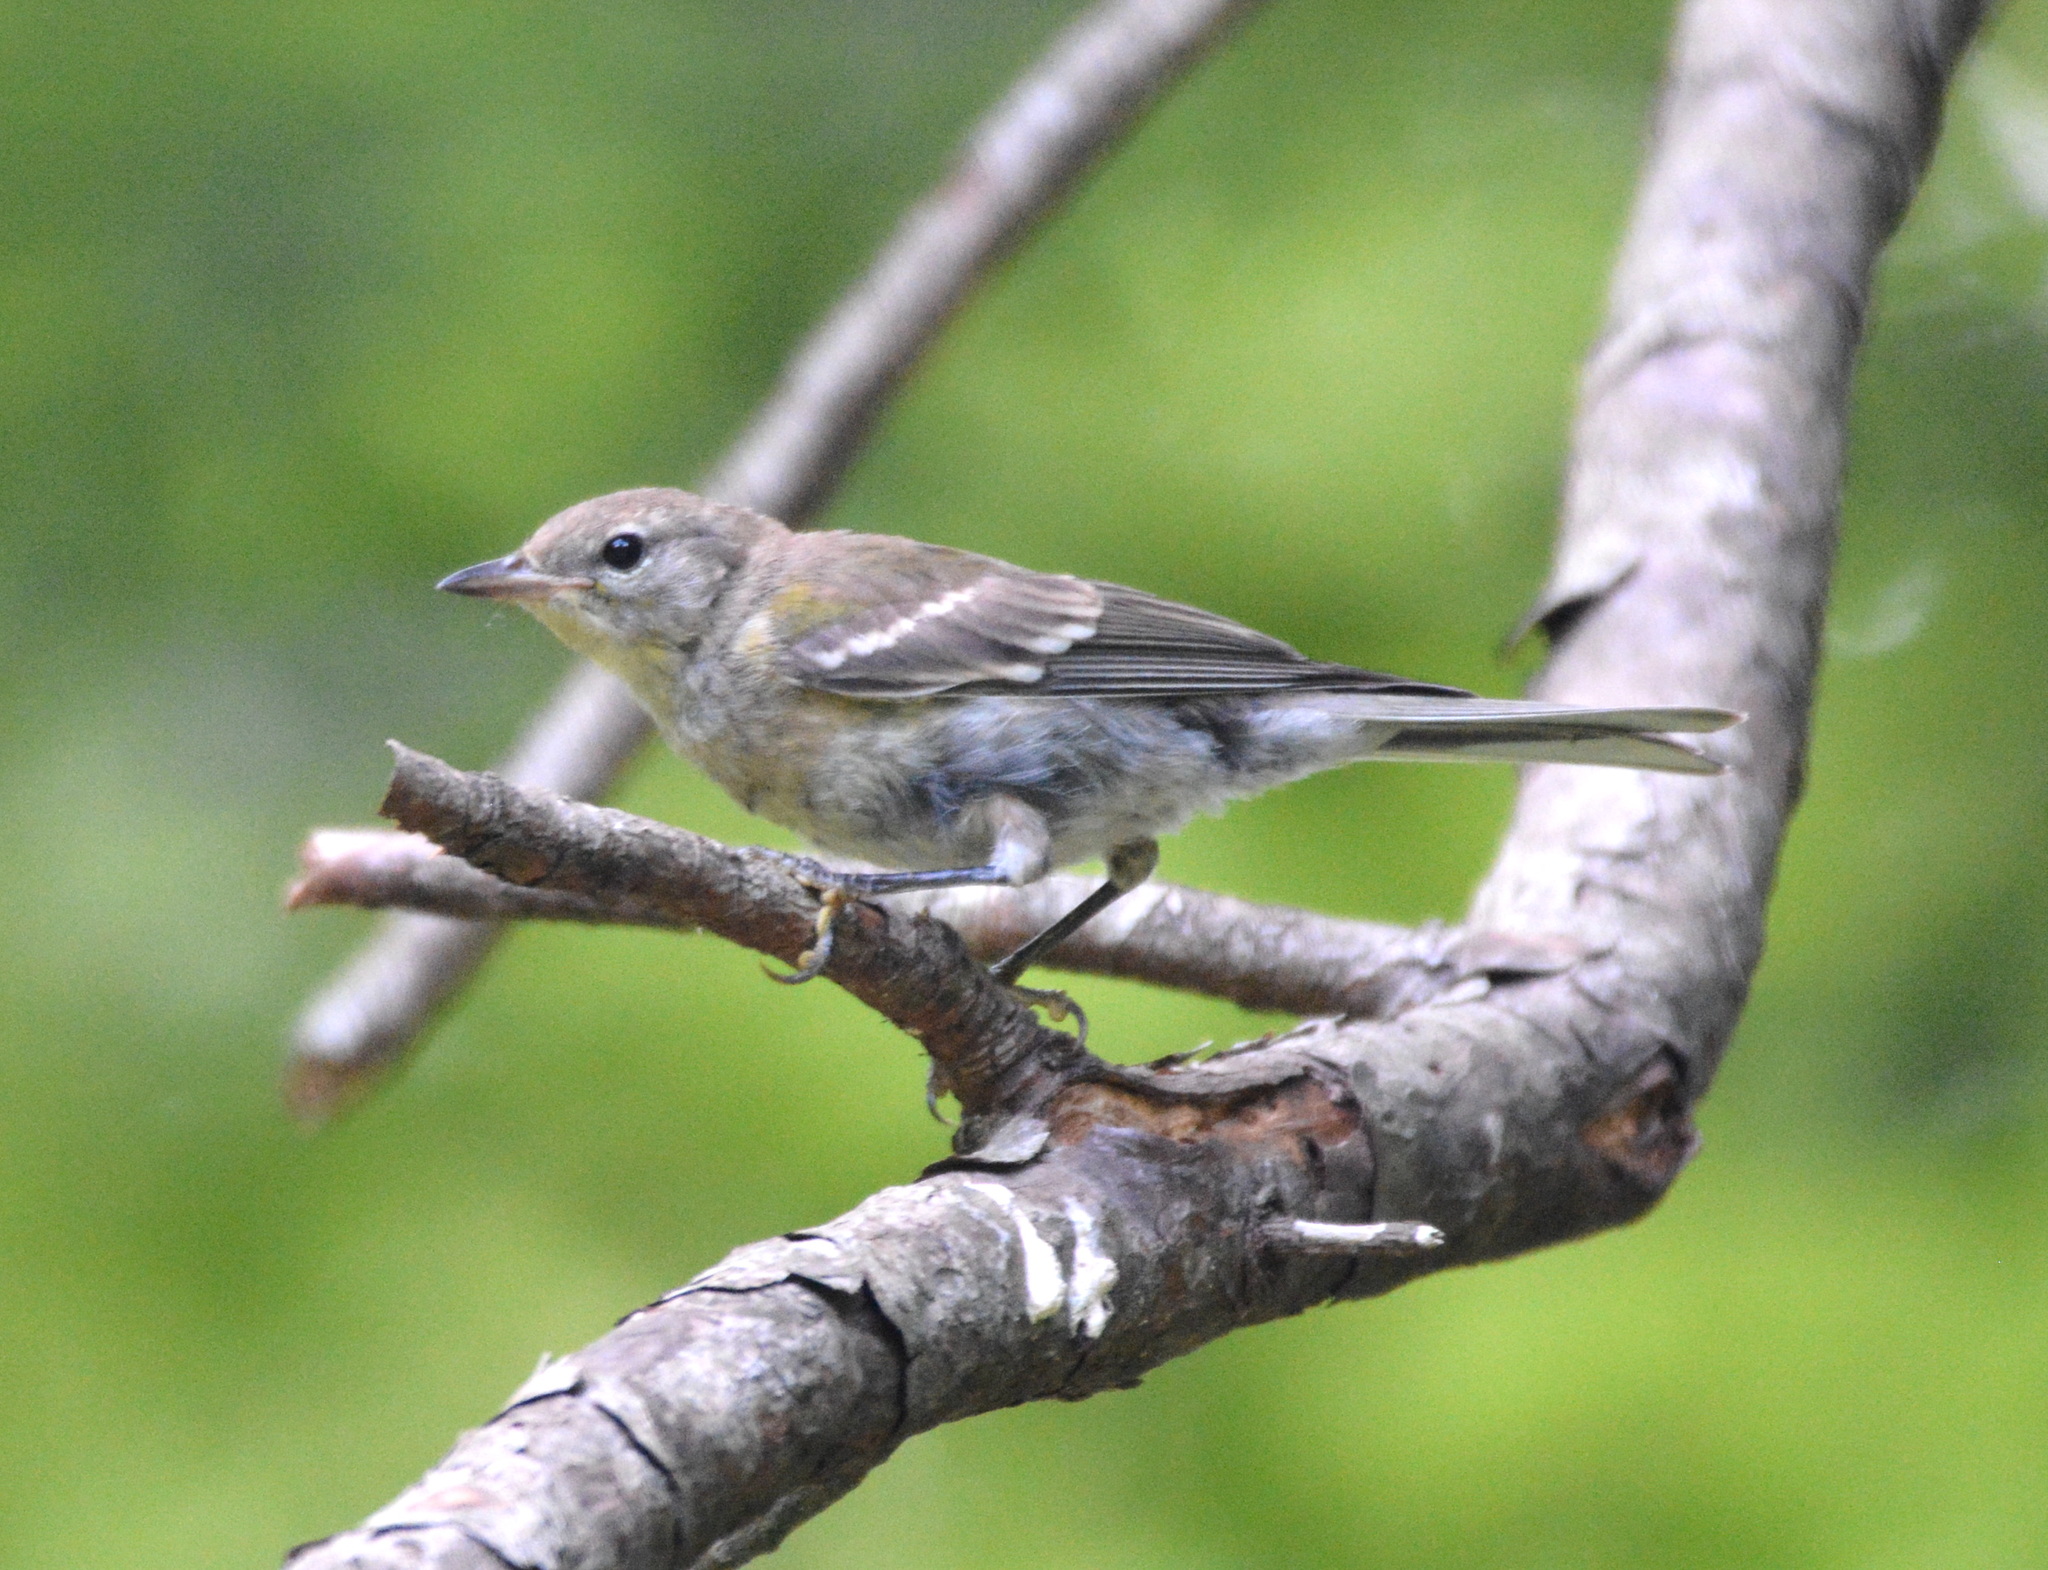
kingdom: Animalia
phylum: Chordata
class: Aves
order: Passeriformes
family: Parulidae
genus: Setophaga
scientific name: Setophaga pinus
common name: Pine warbler
